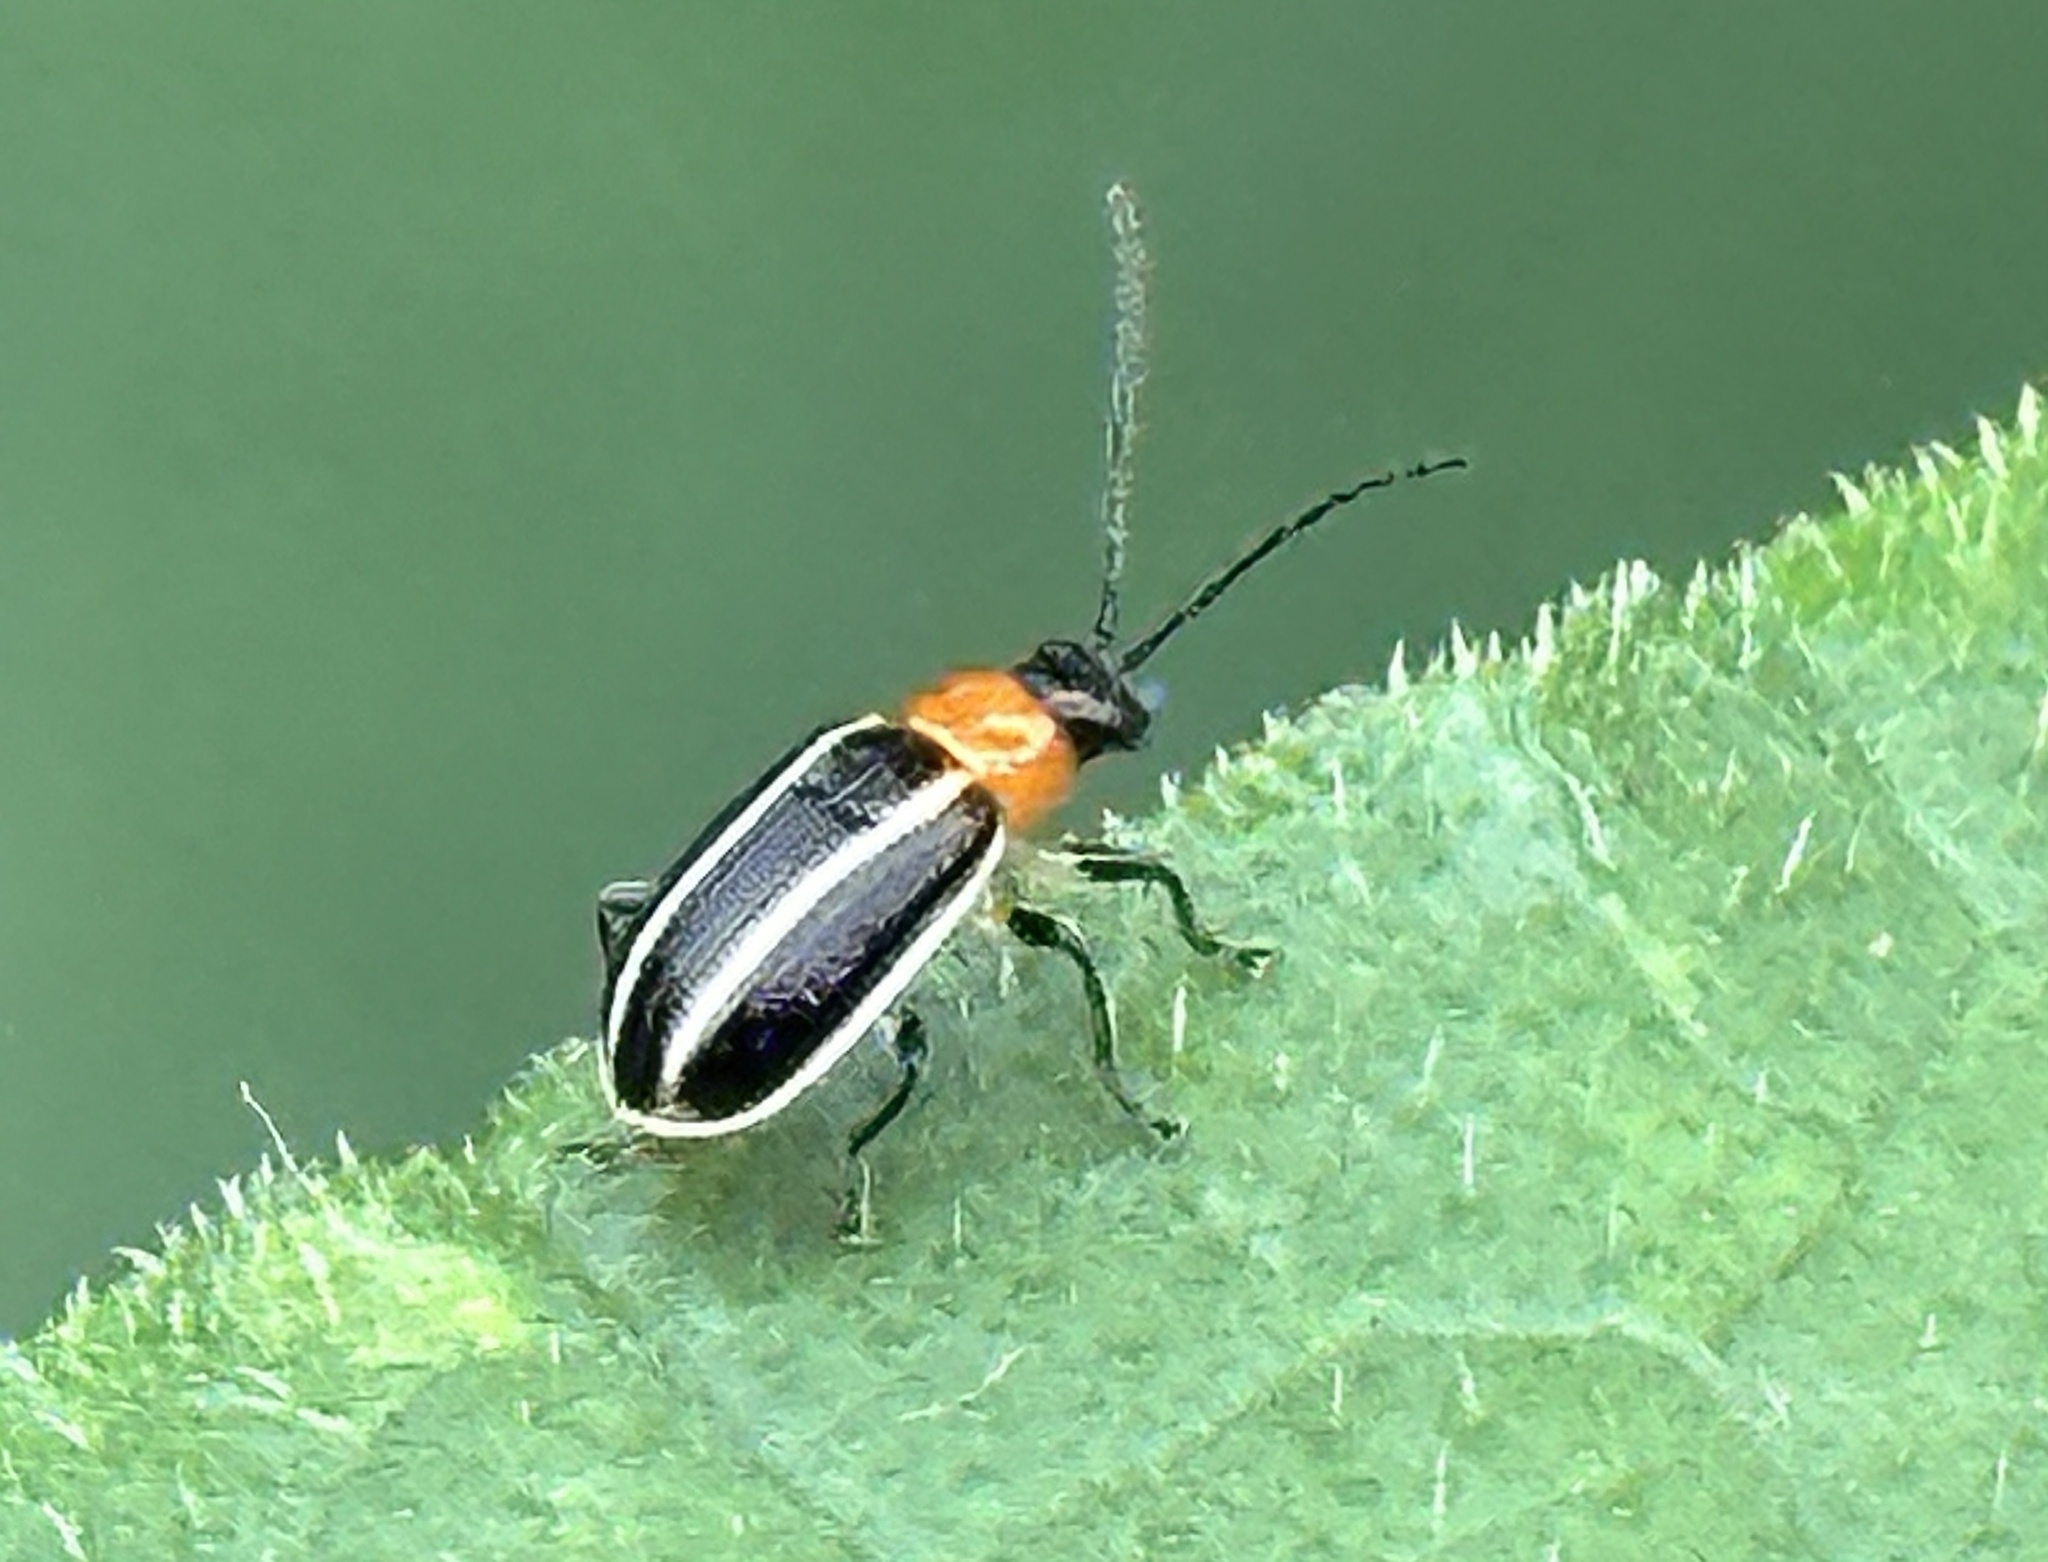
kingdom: Animalia
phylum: Arthropoda
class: Insecta
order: Coleoptera
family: Chrysomelidae
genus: Acalymma
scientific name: Acalymma vinctum
